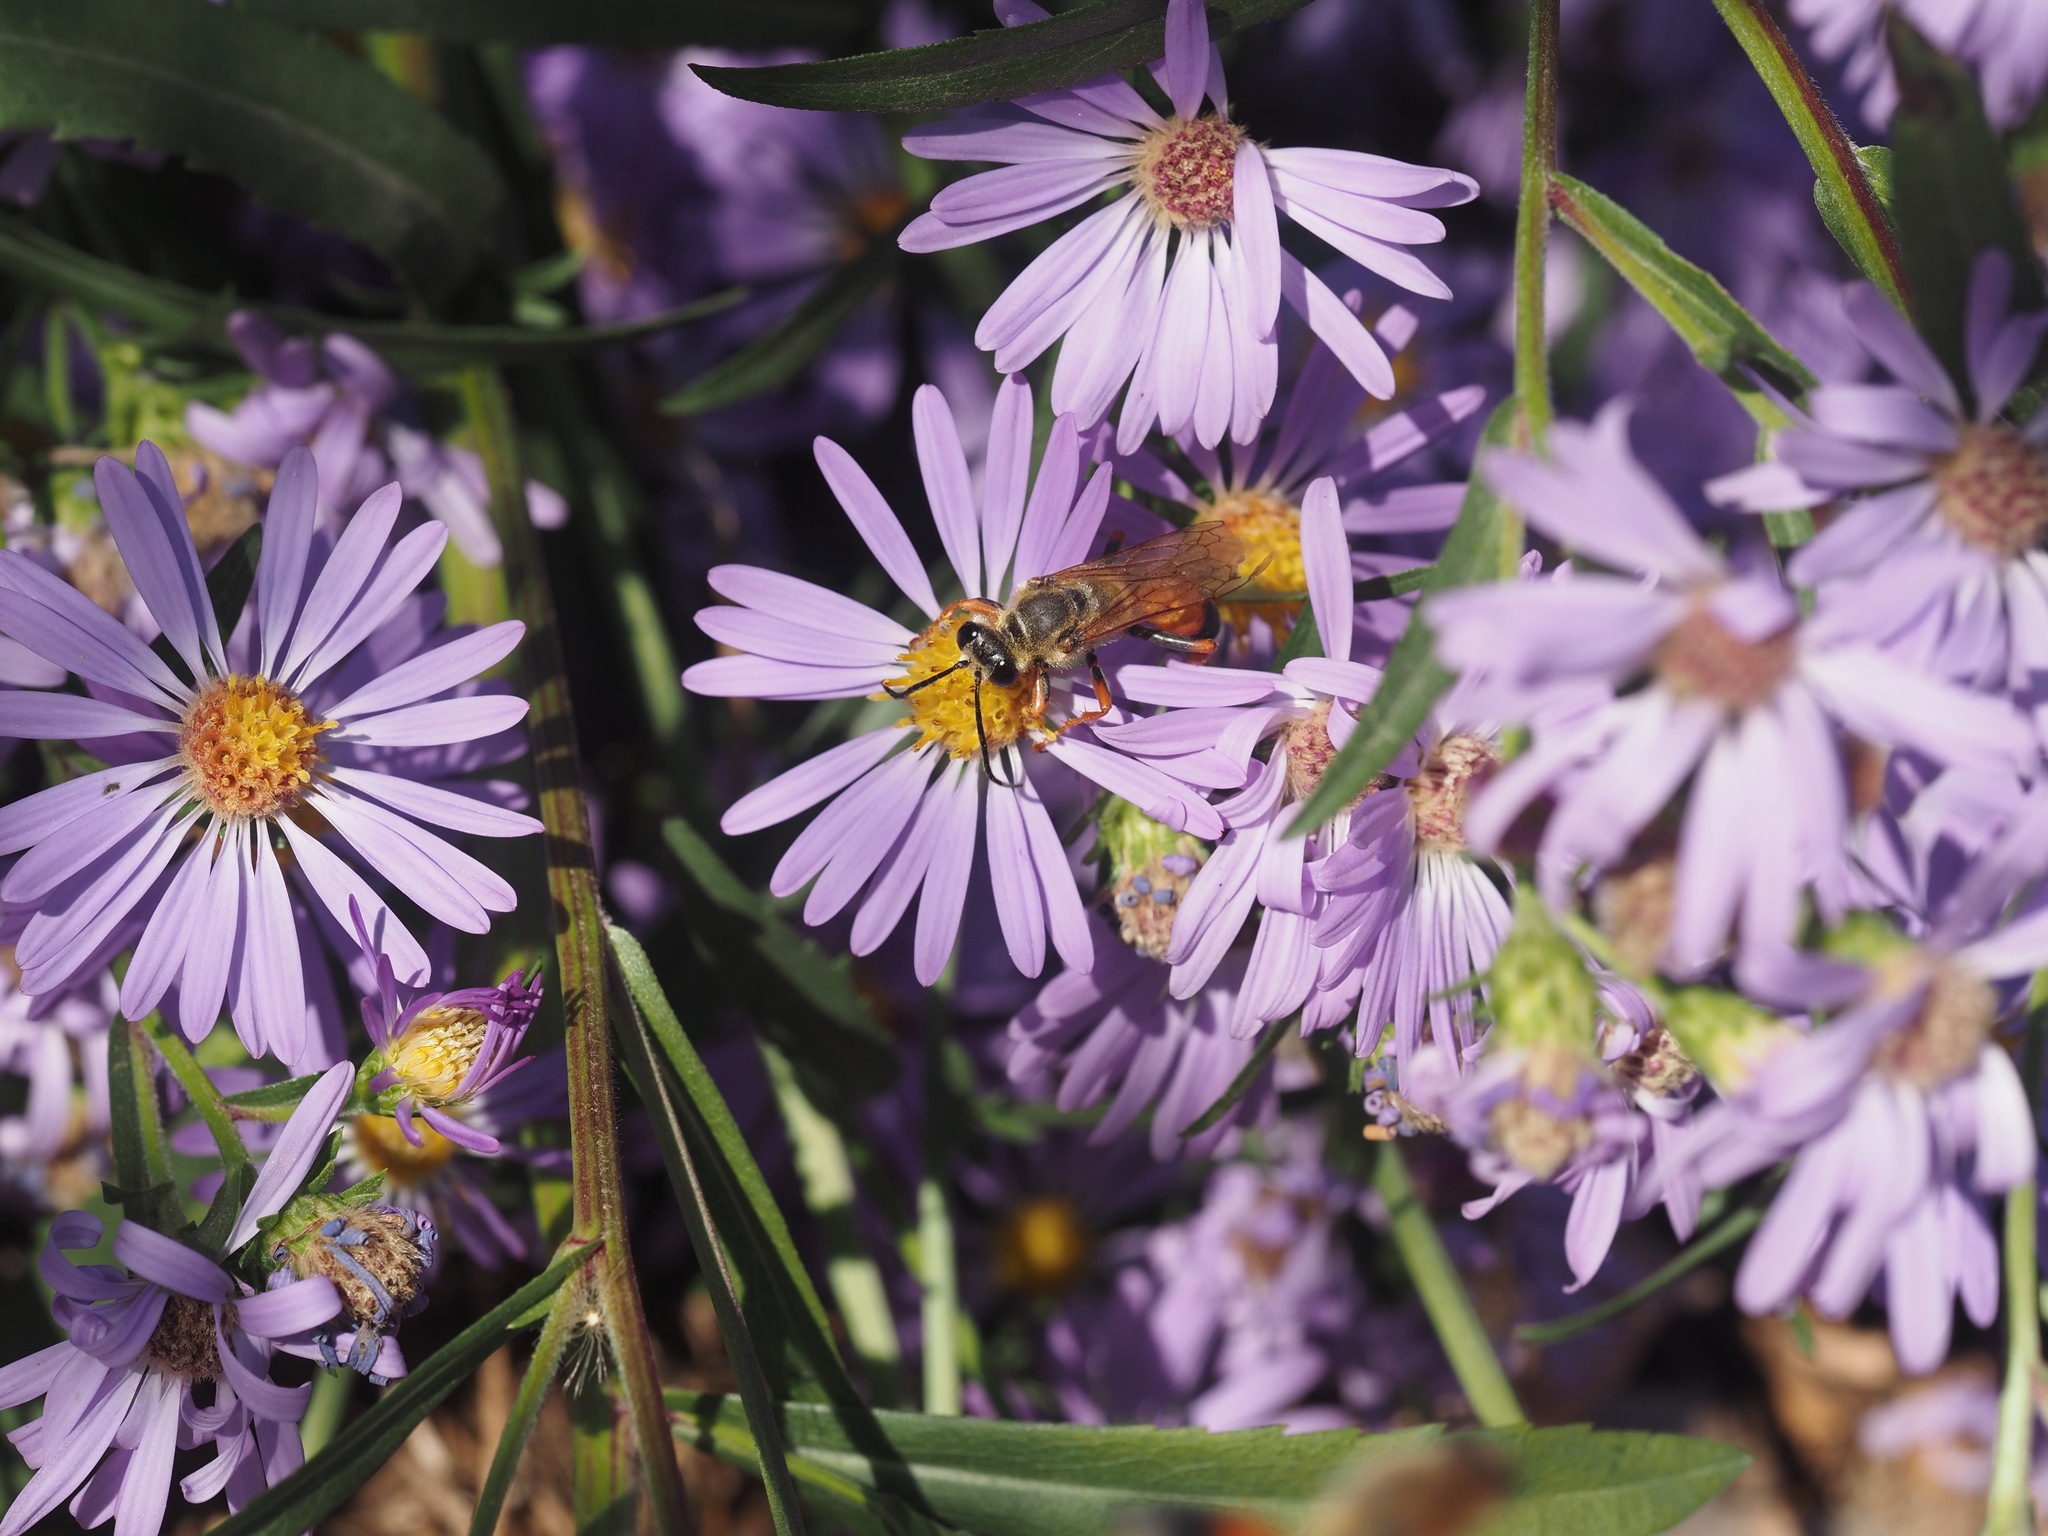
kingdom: Animalia
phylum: Arthropoda
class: Insecta
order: Hymenoptera
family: Sphecidae
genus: Sphex
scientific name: Sphex ichneumoneus
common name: Great golden digger wasp
